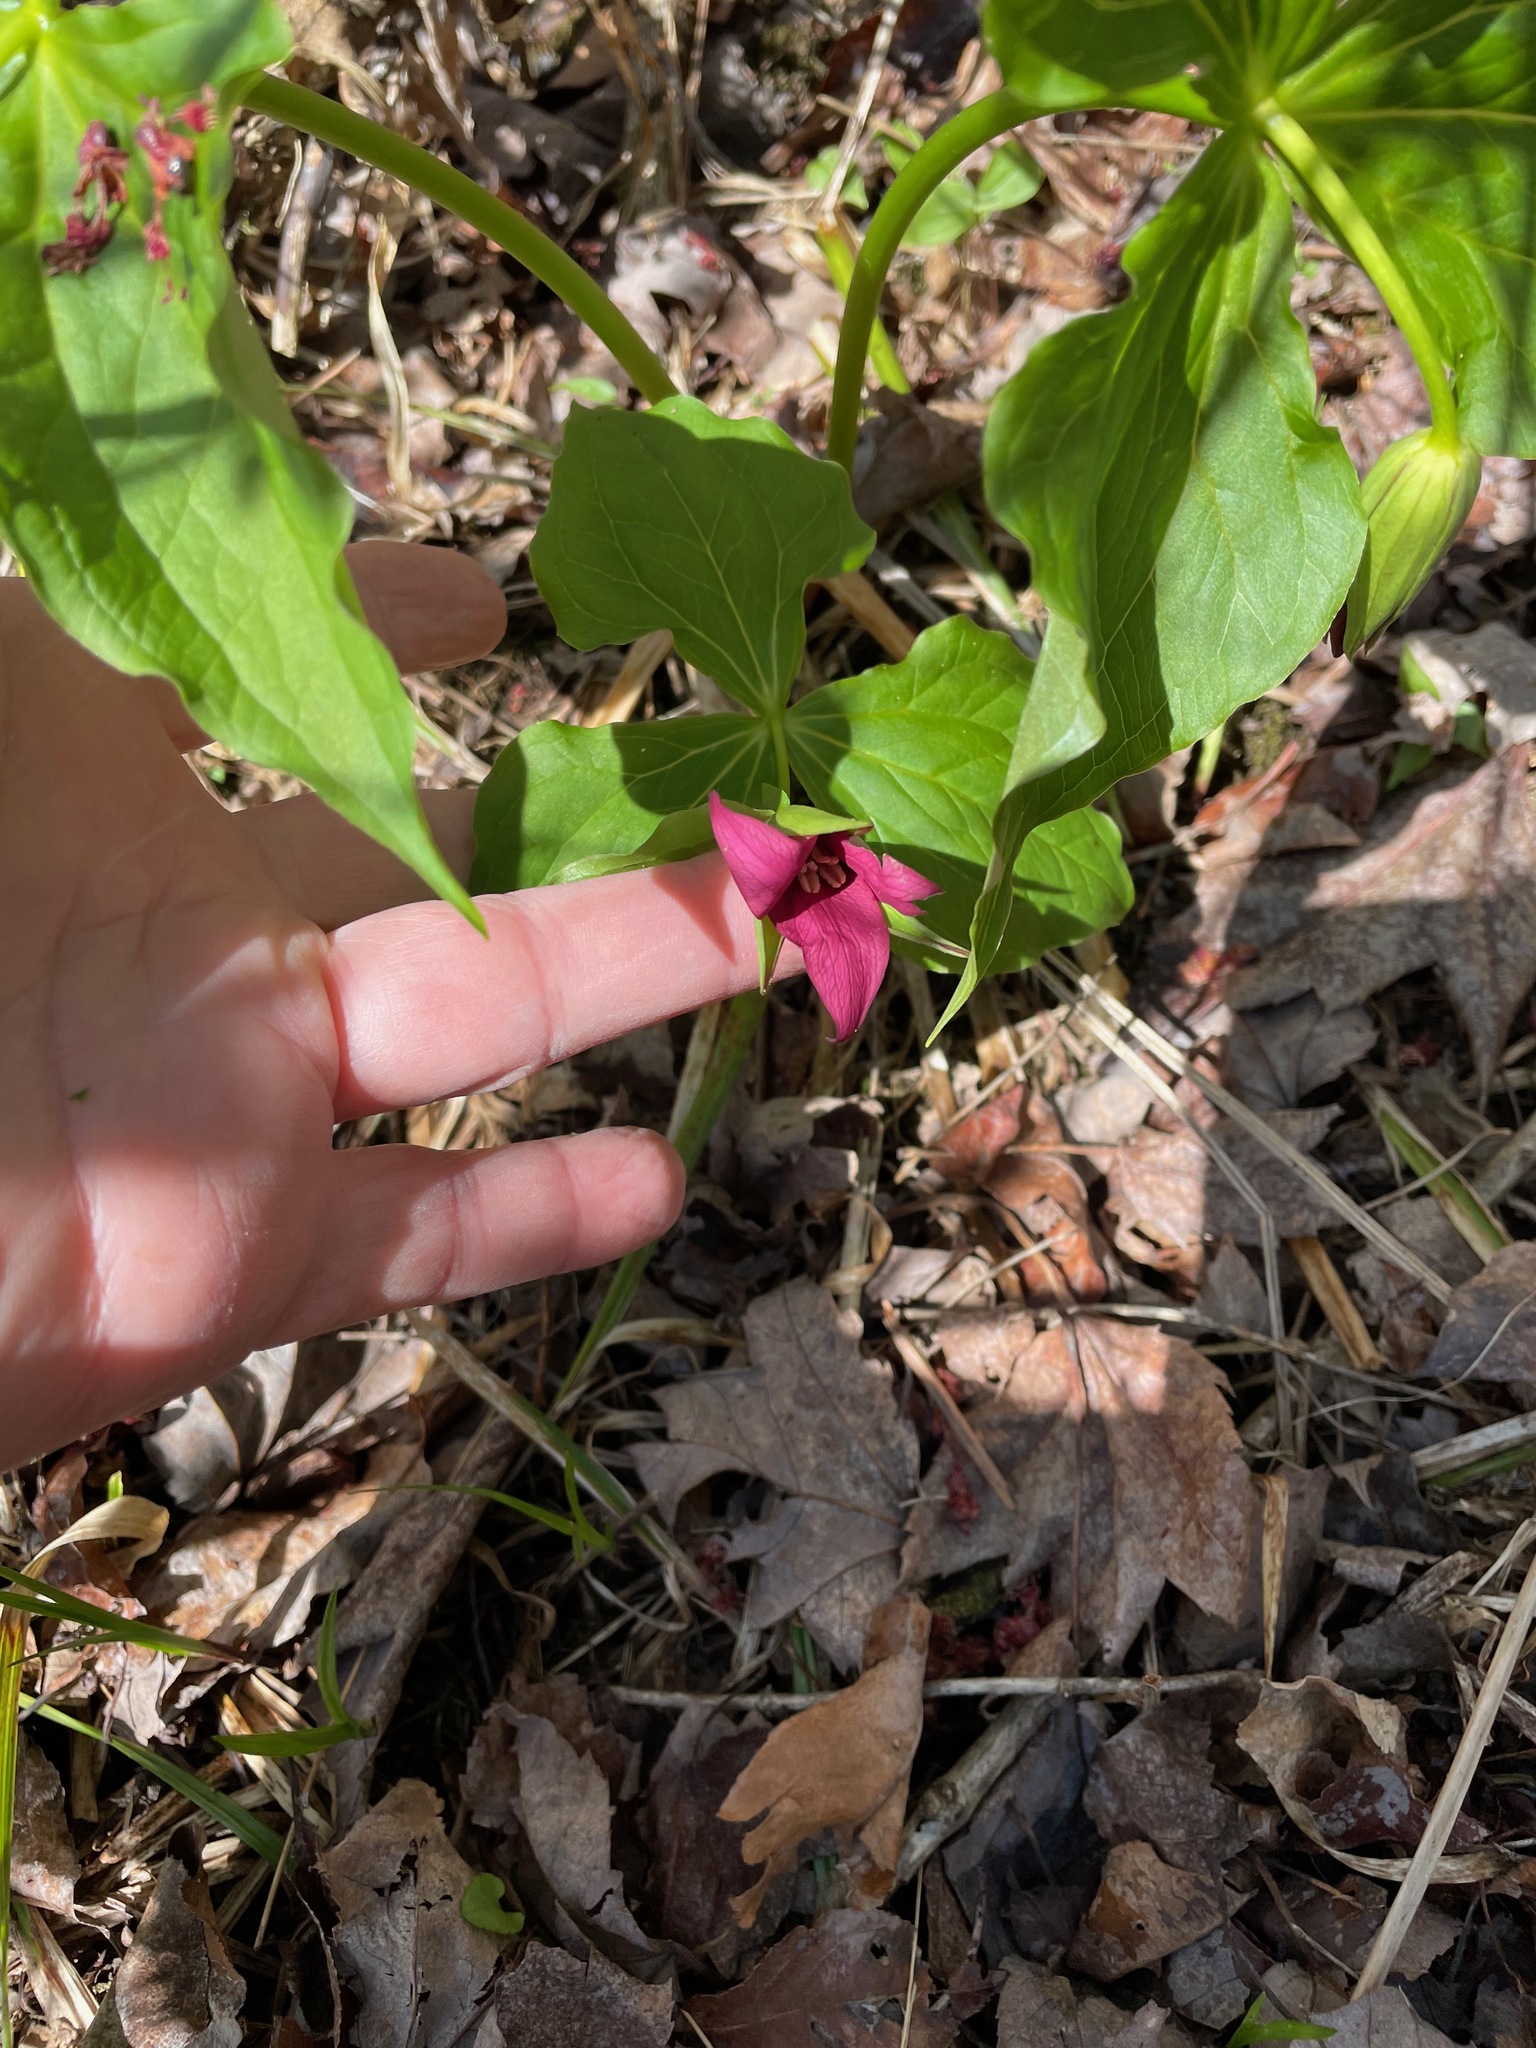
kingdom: Plantae
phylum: Tracheophyta
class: Liliopsida
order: Liliales
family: Melanthiaceae
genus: Trillium
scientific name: Trillium erectum
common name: Purple trillium
